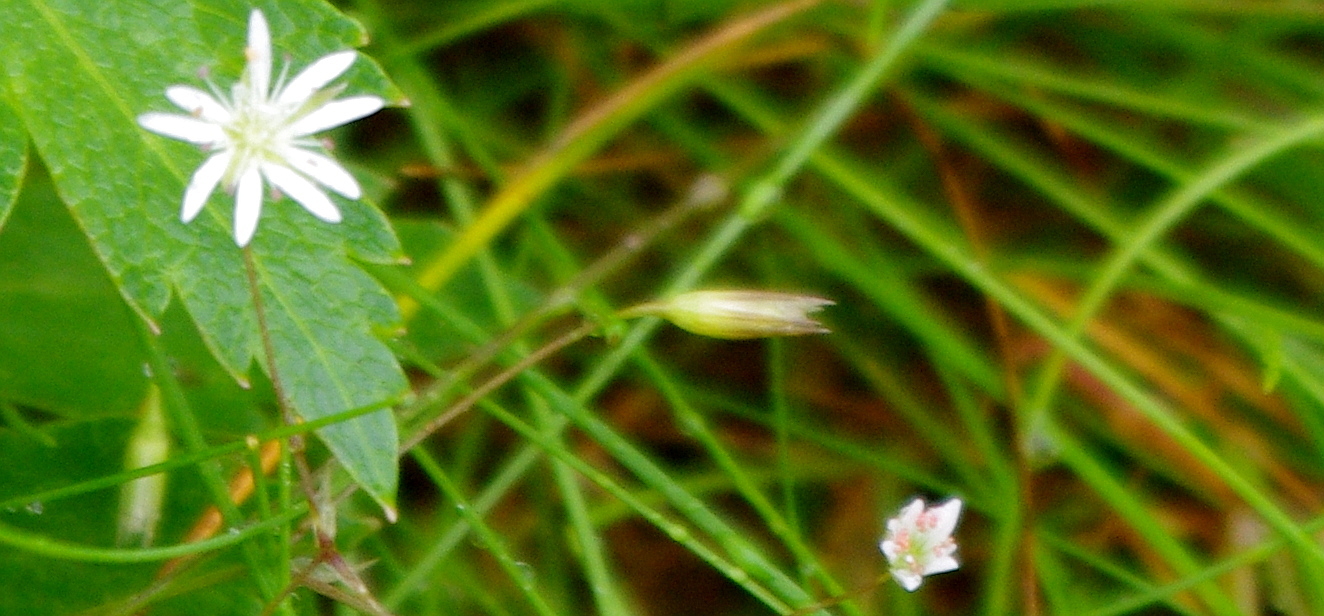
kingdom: Plantae
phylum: Tracheophyta
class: Magnoliopsida
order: Caryophyllales
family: Caryophyllaceae
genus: Stellaria
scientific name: Stellaria graminea
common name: Grass-like starwort
